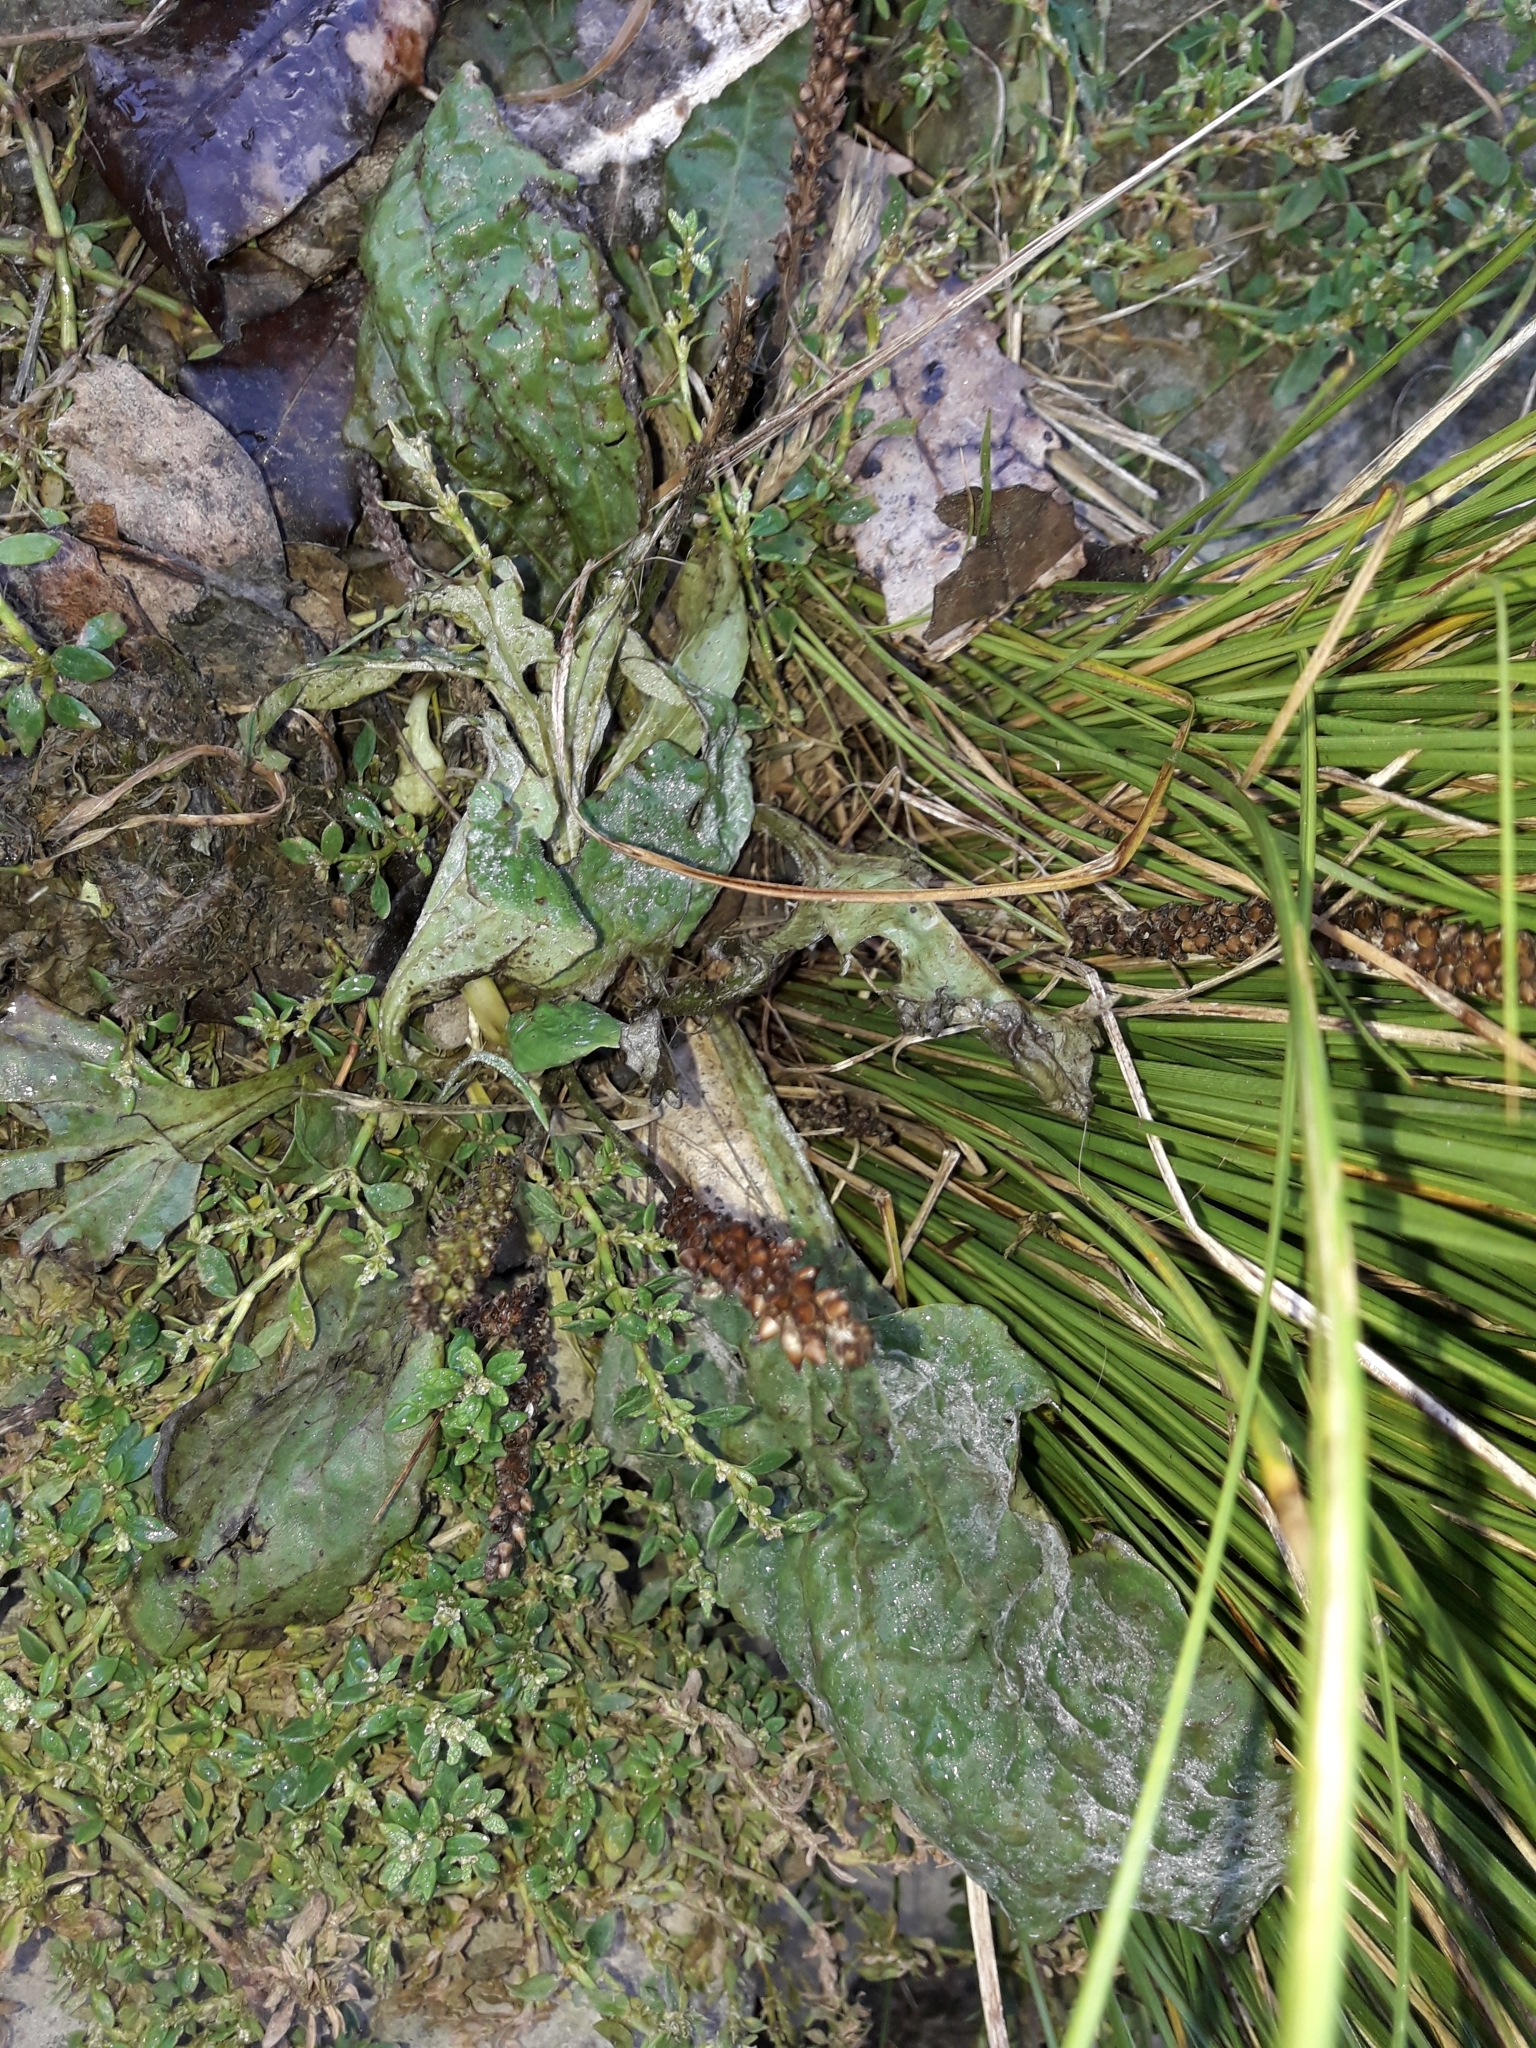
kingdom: Plantae
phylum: Tracheophyta
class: Magnoliopsida
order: Lamiales
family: Plantaginaceae
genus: Plantago
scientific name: Plantago major
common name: Common plantain
